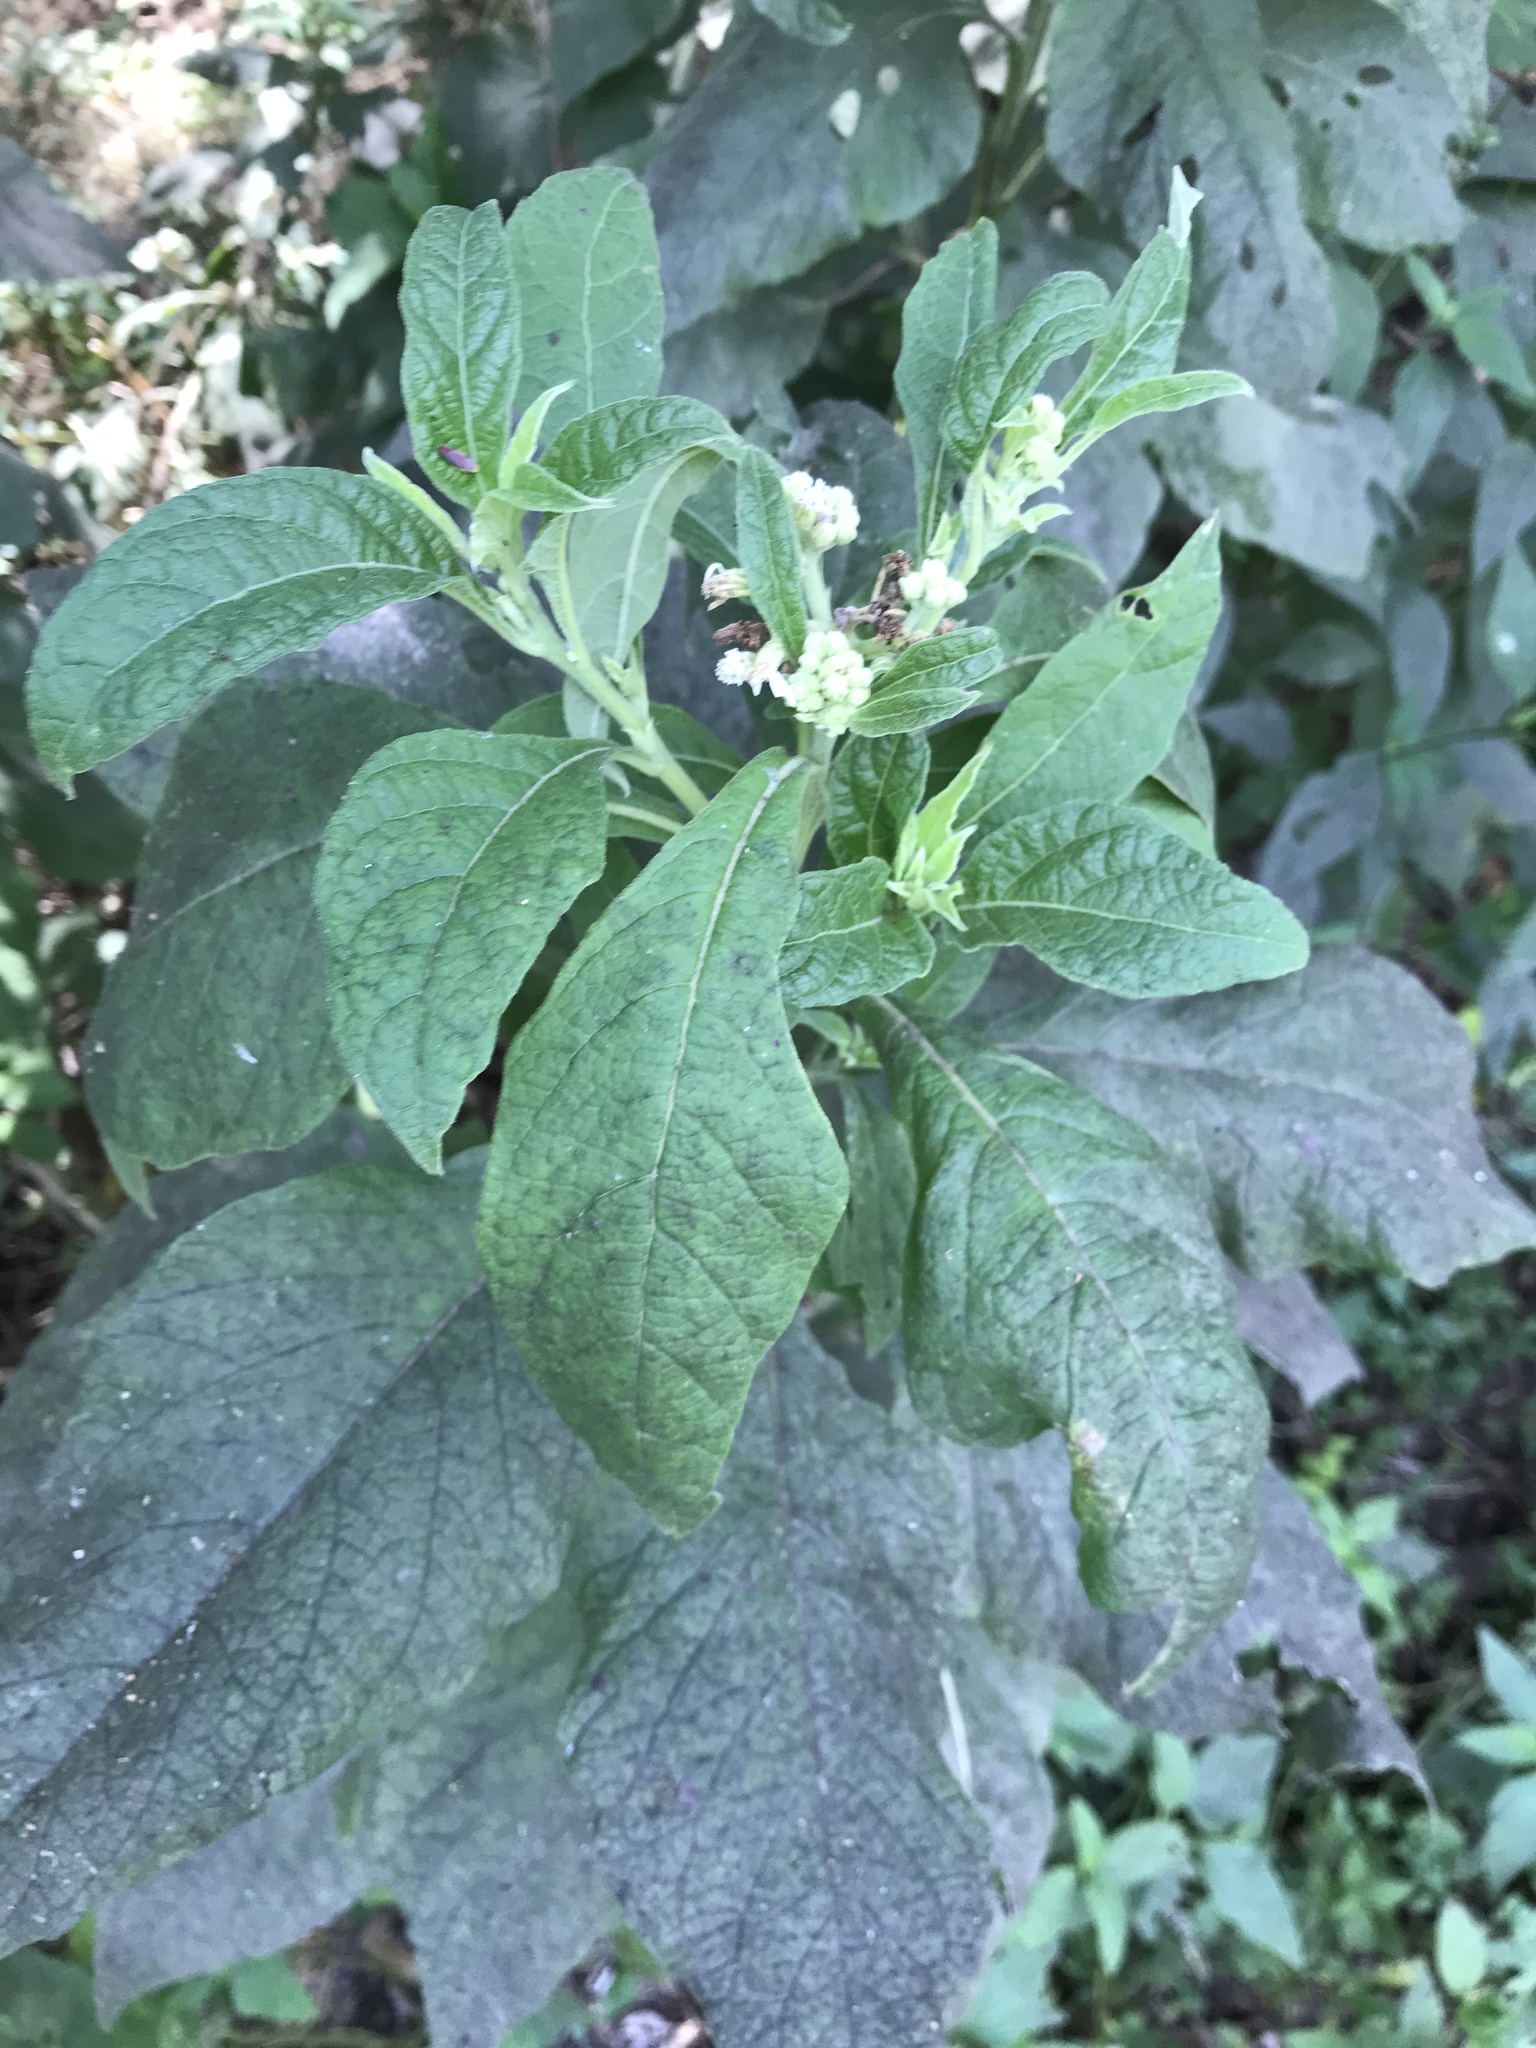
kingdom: Plantae
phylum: Tracheophyta
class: Magnoliopsida
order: Asterales
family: Asteraceae
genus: Verbesina
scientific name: Verbesina virginica
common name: Frostweed
